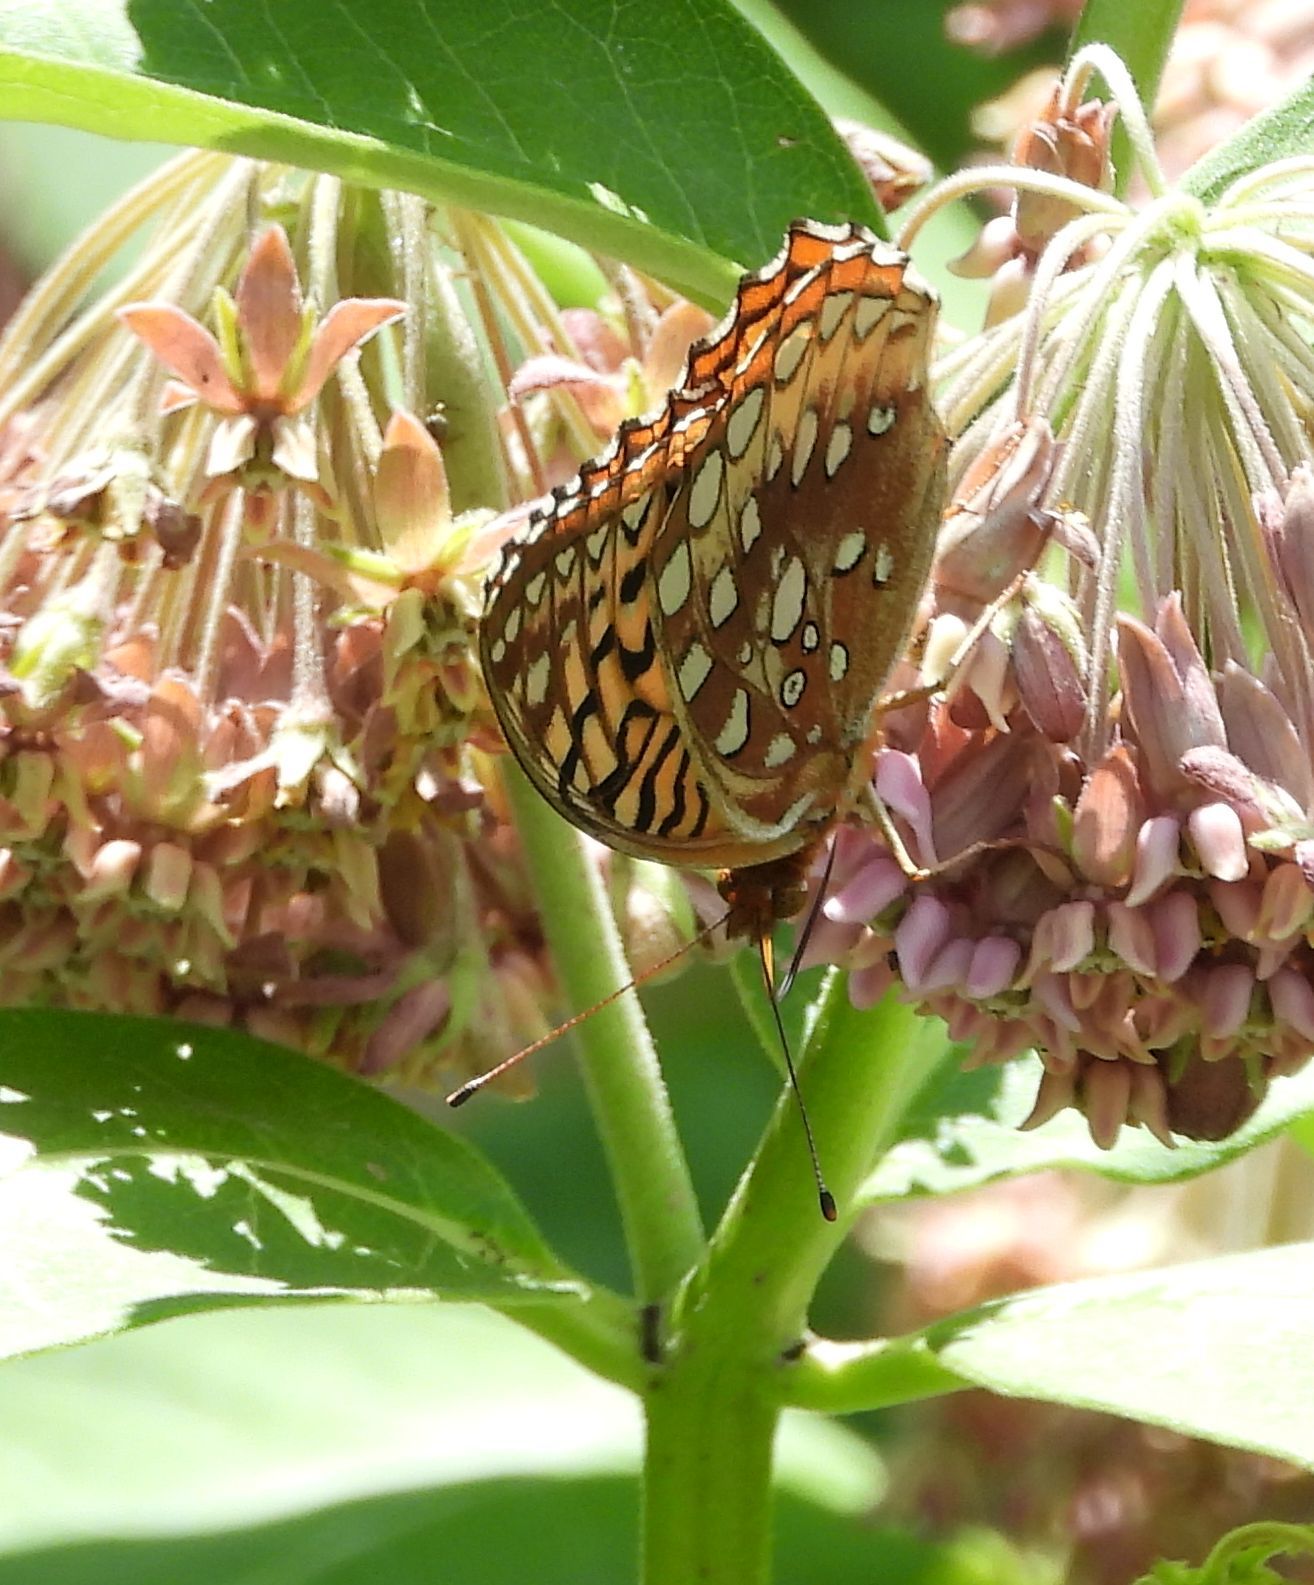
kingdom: Animalia
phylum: Arthropoda
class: Insecta
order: Lepidoptera
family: Nymphalidae
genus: Speyeria
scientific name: Speyeria cybele
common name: Great spangled fritillary
